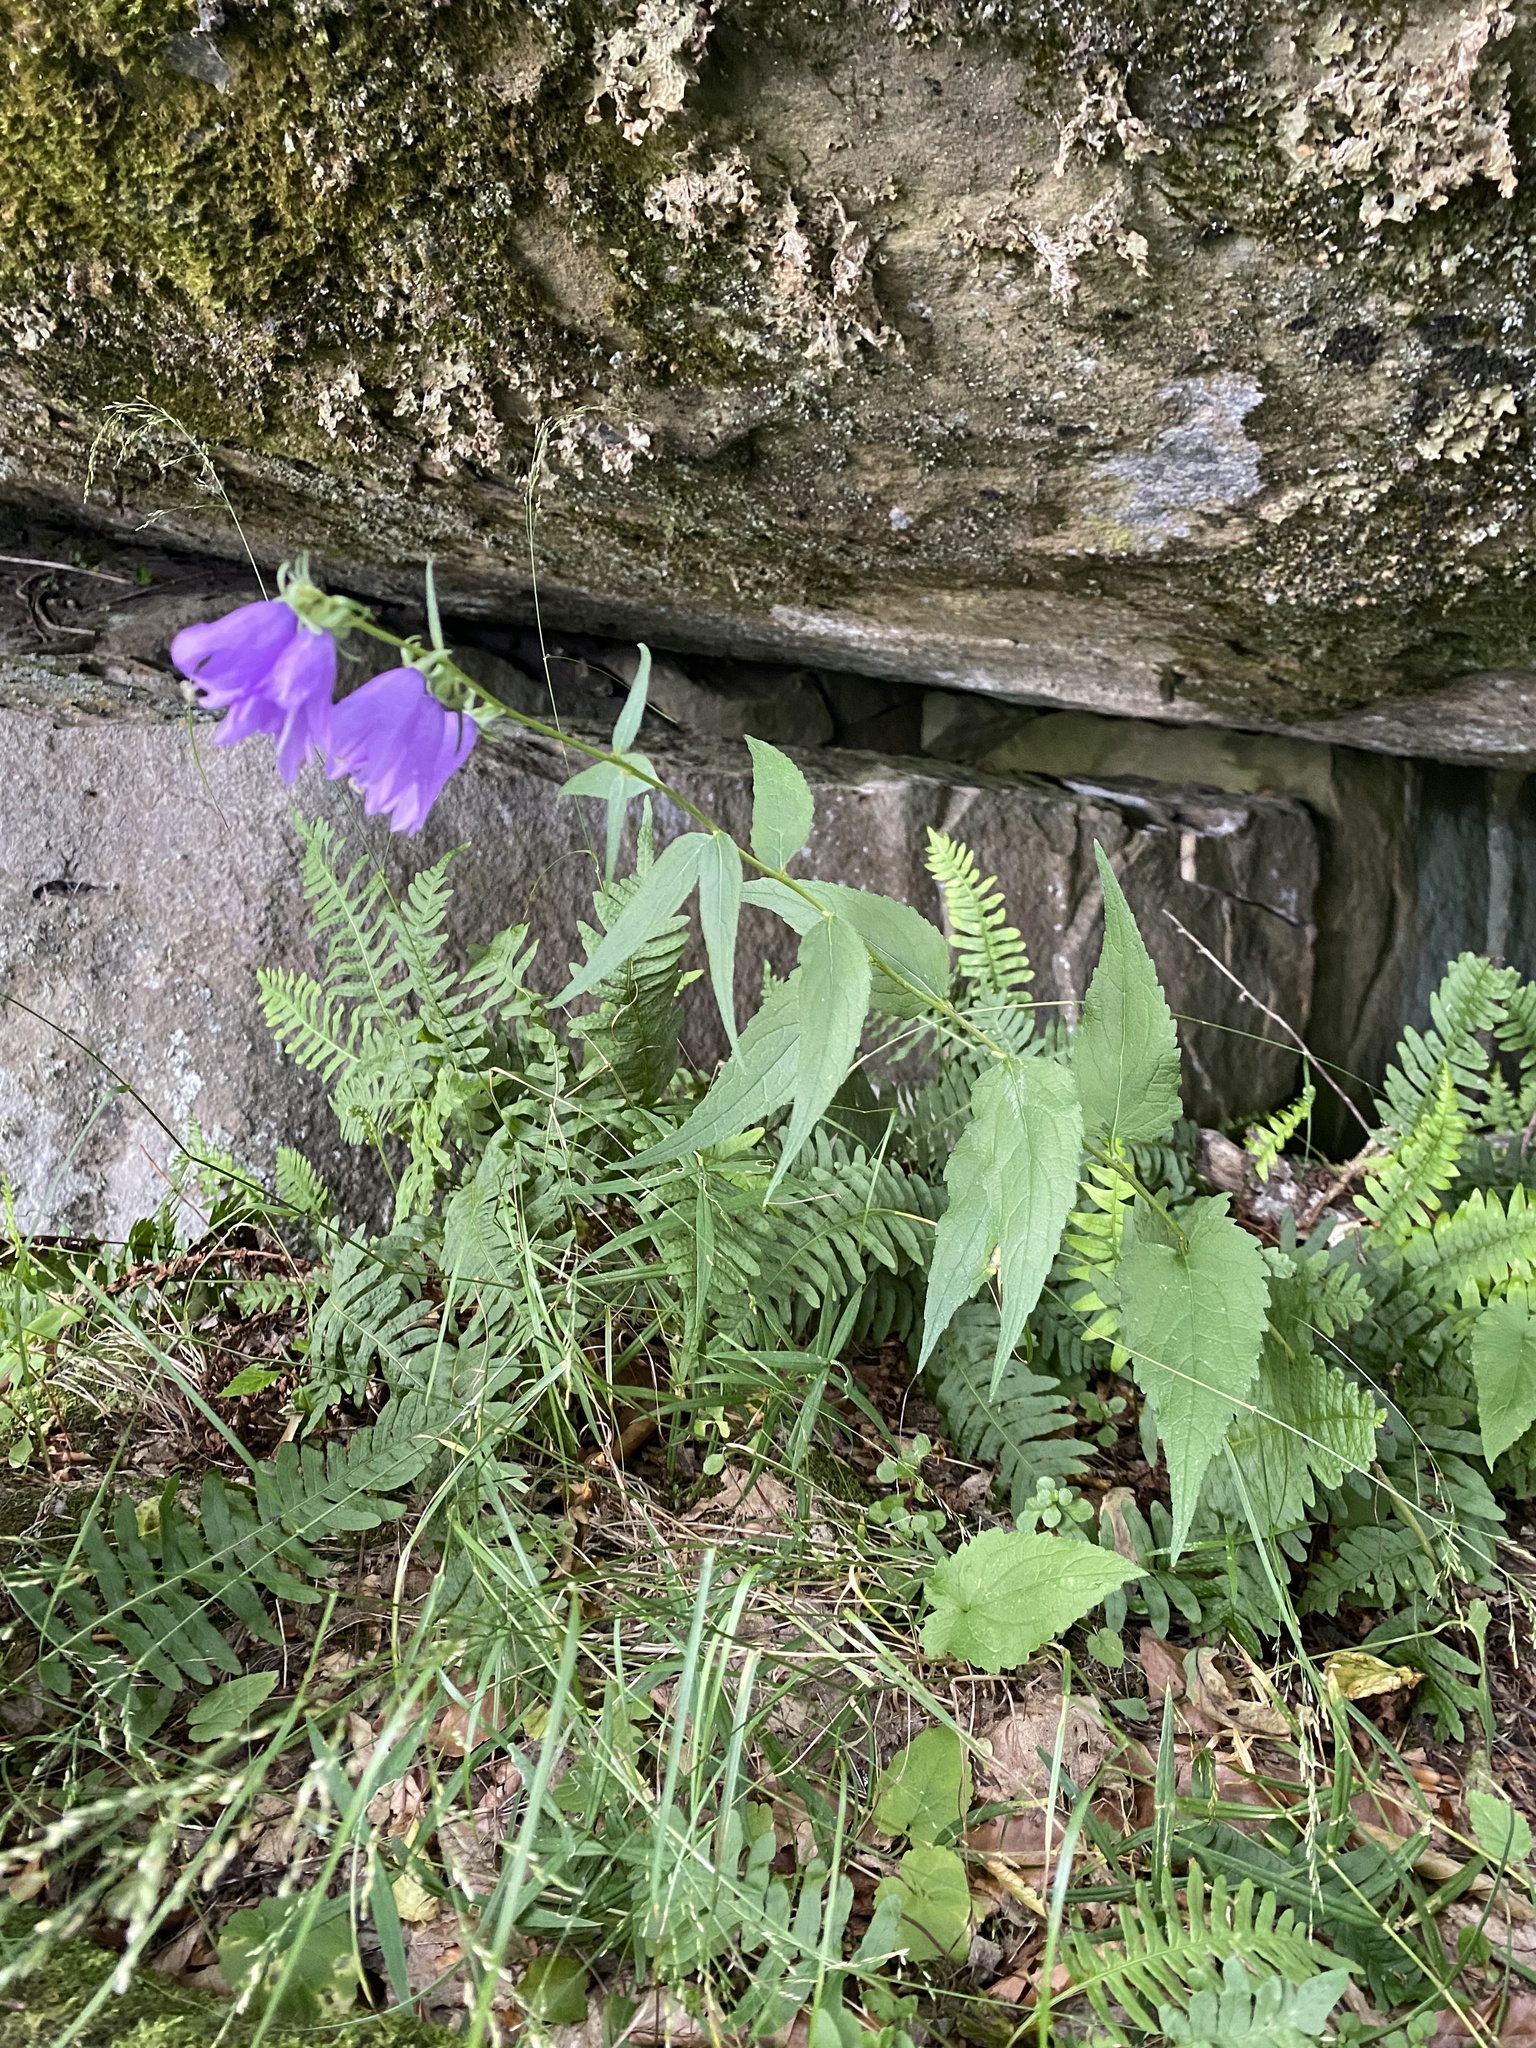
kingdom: Plantae
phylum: Tracheophyta
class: Magnoliopsida
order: Asterales
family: Campanulaceae
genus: Campanula
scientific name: Campanula rapunculoides
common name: Creeping bellflower
